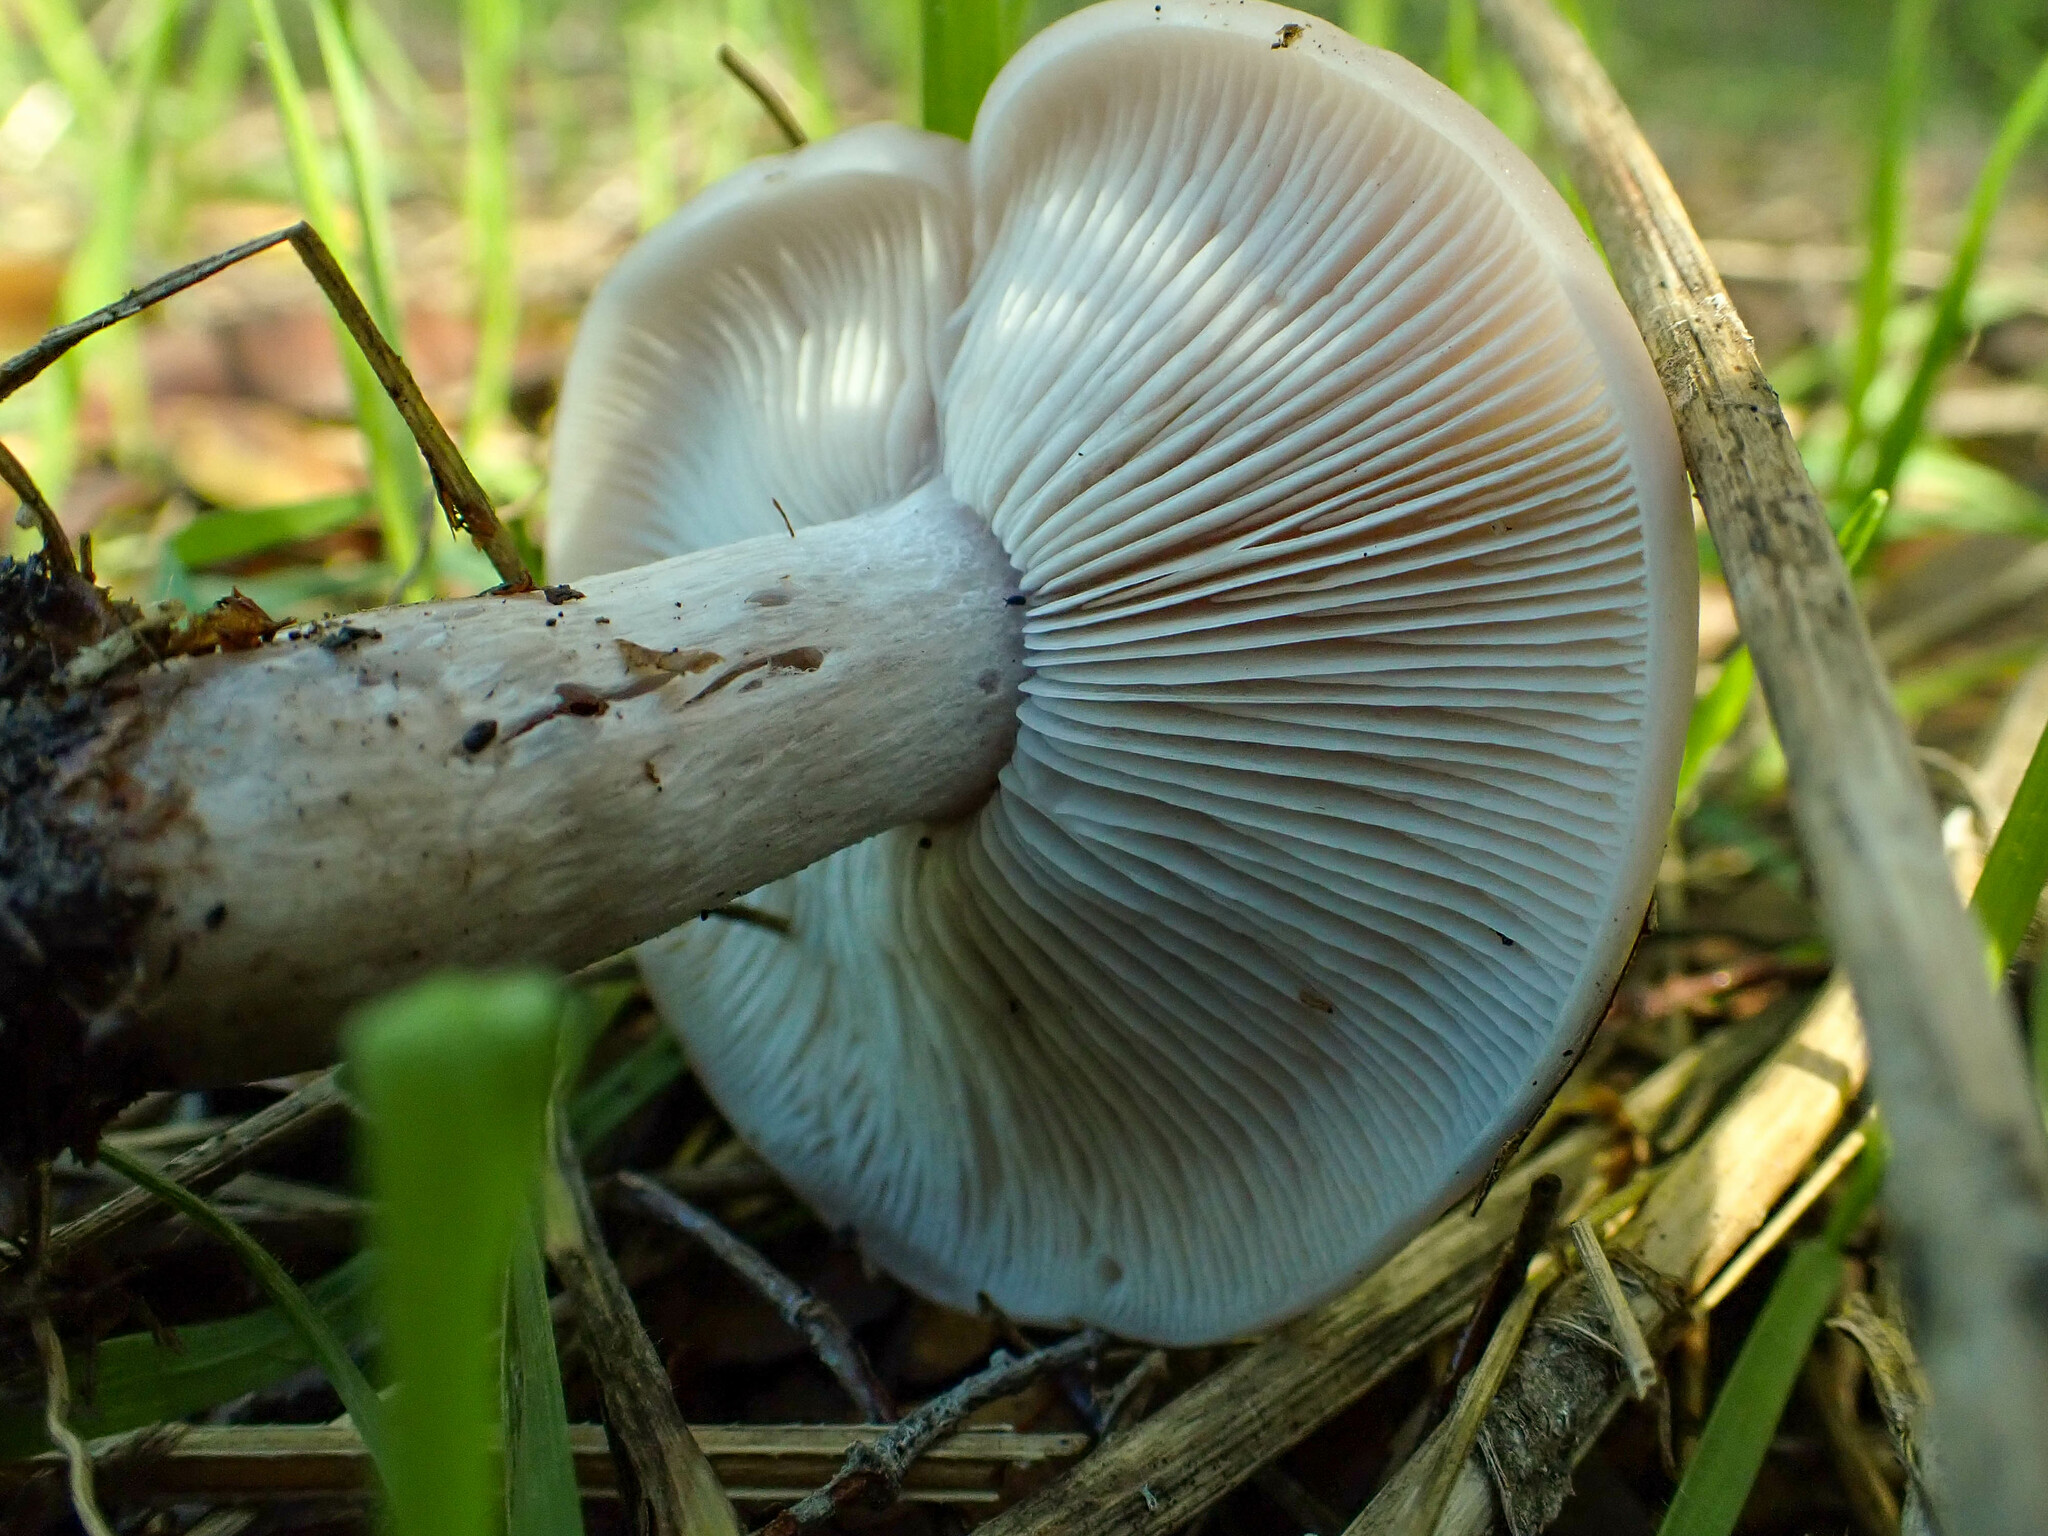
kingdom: Fungi
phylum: Basidiomycota
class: Agaricomycetes
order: Agaricales
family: Tricholomataceae
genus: Collybia
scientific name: Collybia
